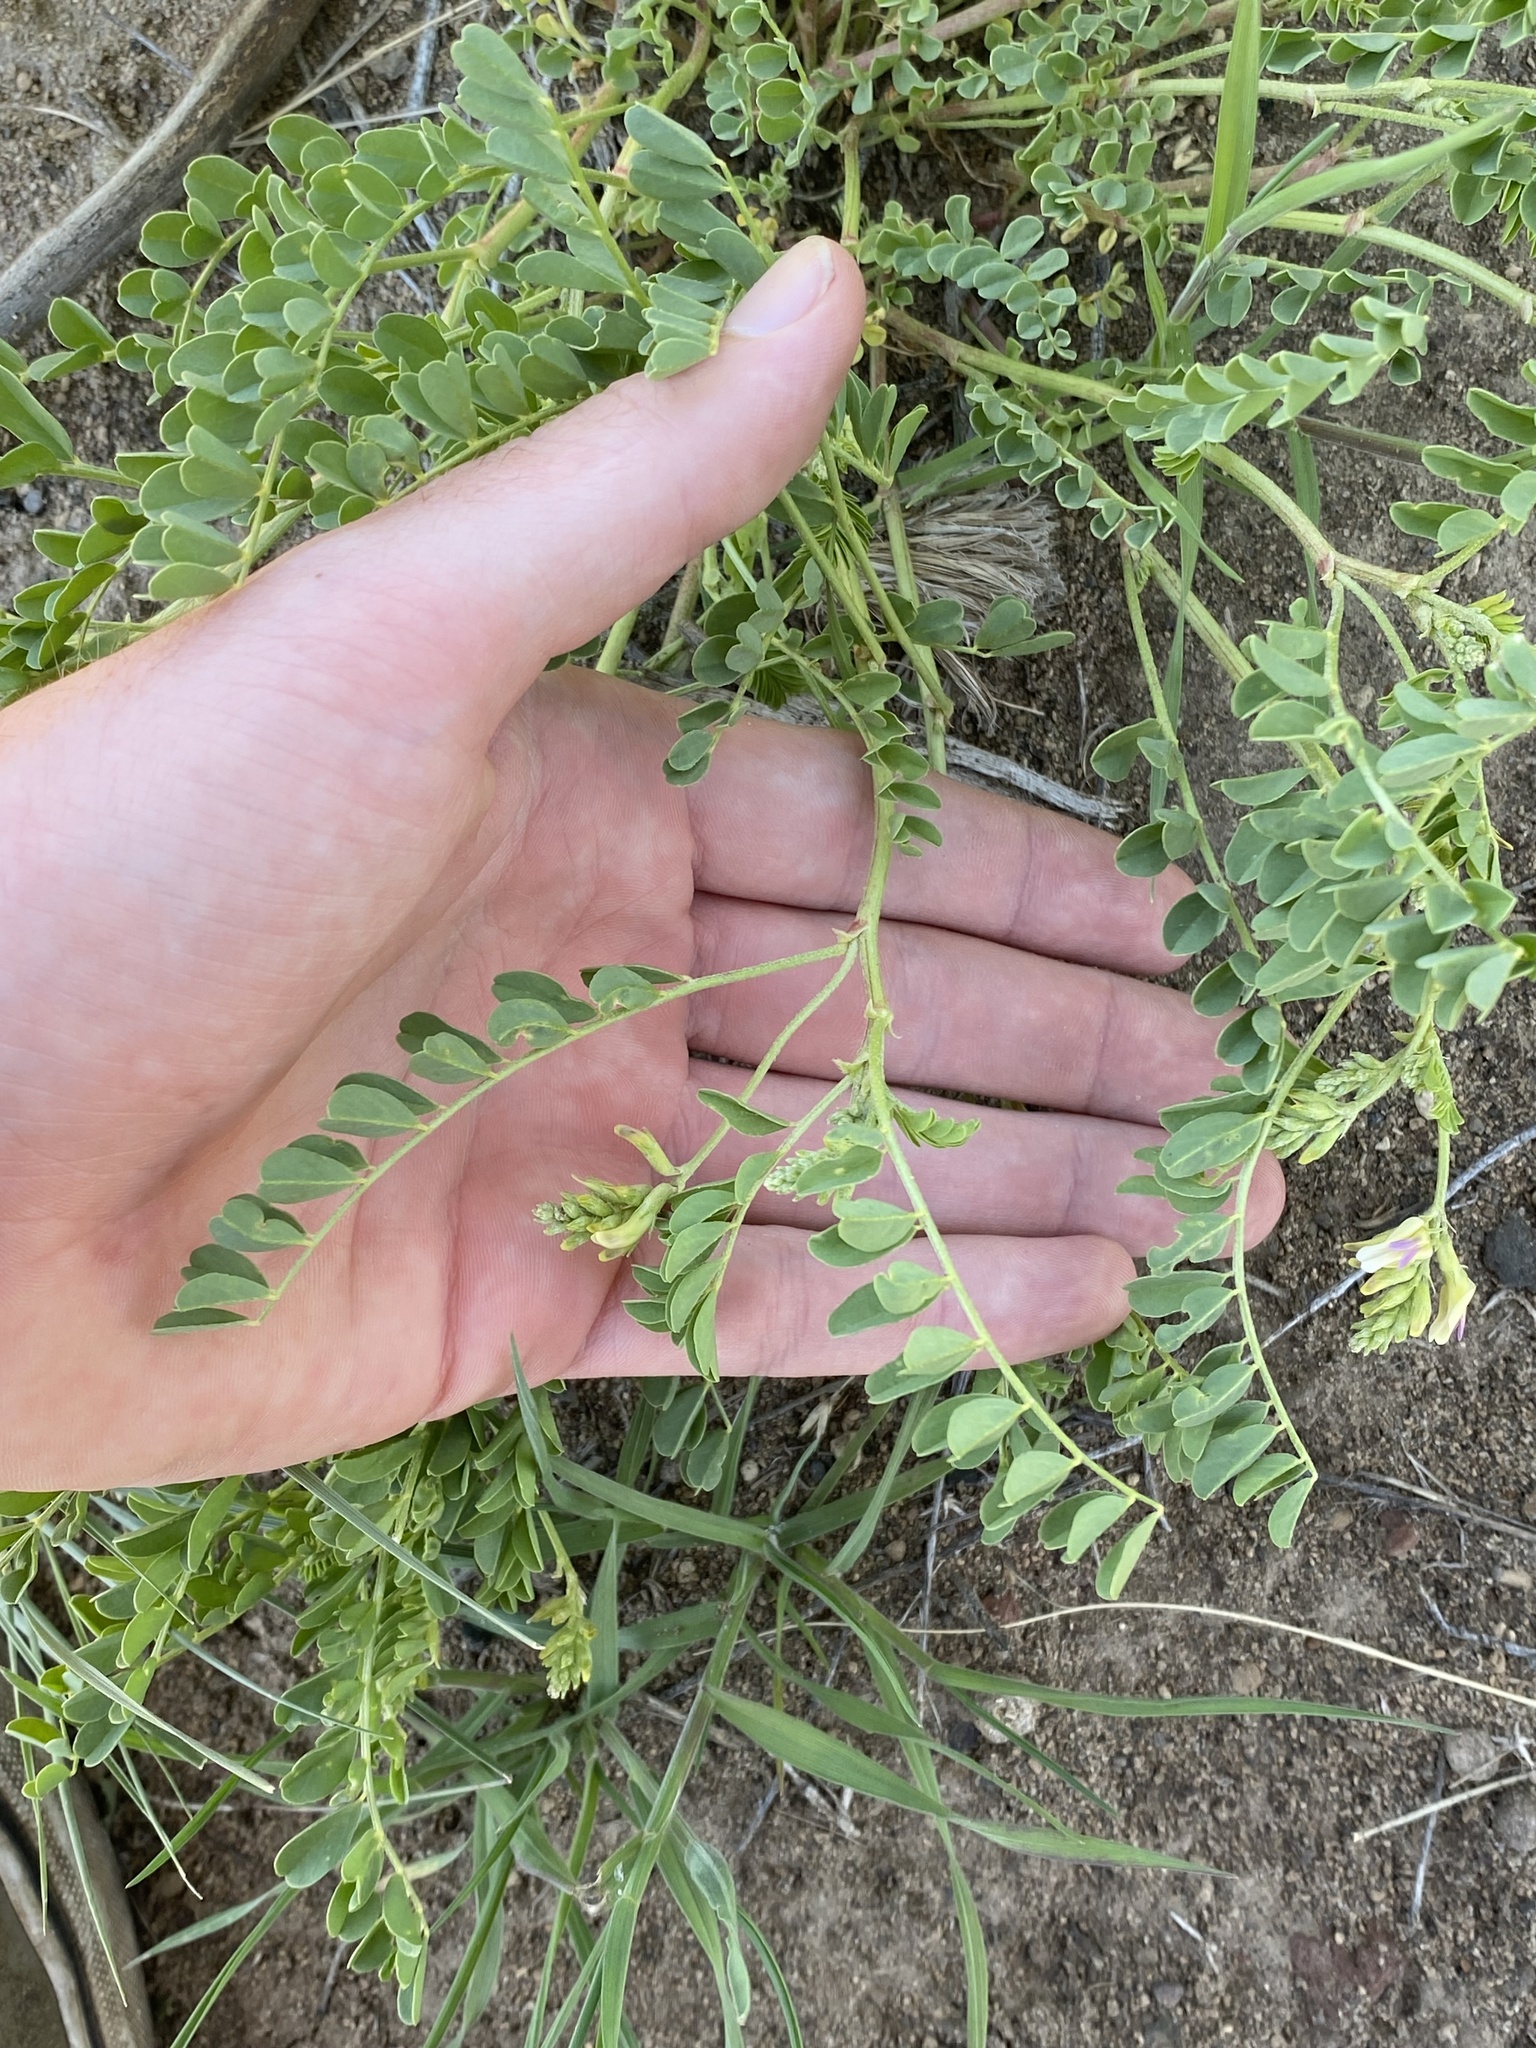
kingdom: Plantae
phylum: Tracheophyta
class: Magnoliopsida
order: Fabales
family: Fabaceae
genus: Astragalus
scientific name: Astragalus lentiginosus
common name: Freckled milkvetch
